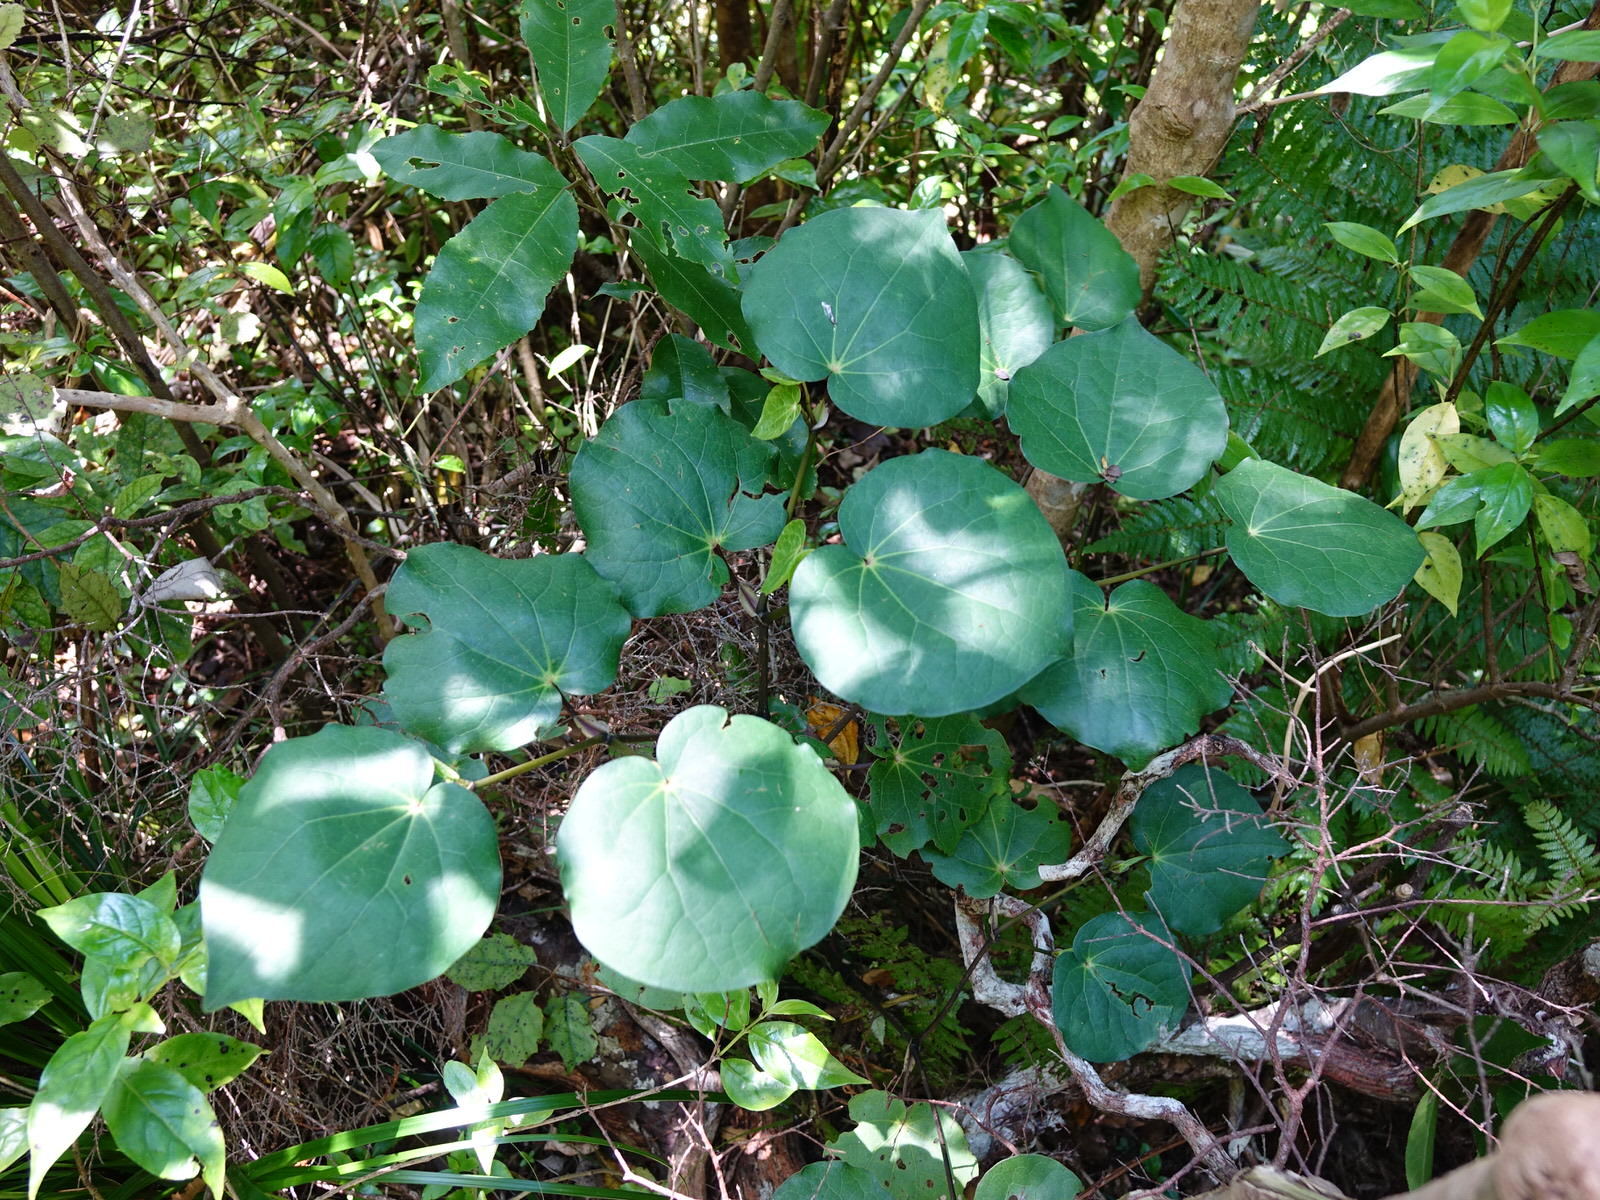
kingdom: Plantae
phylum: Tracheophyta
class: Magnoliopsida
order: Piperales
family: Piperaceae
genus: Macropiper
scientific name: Macropiper excelsum
